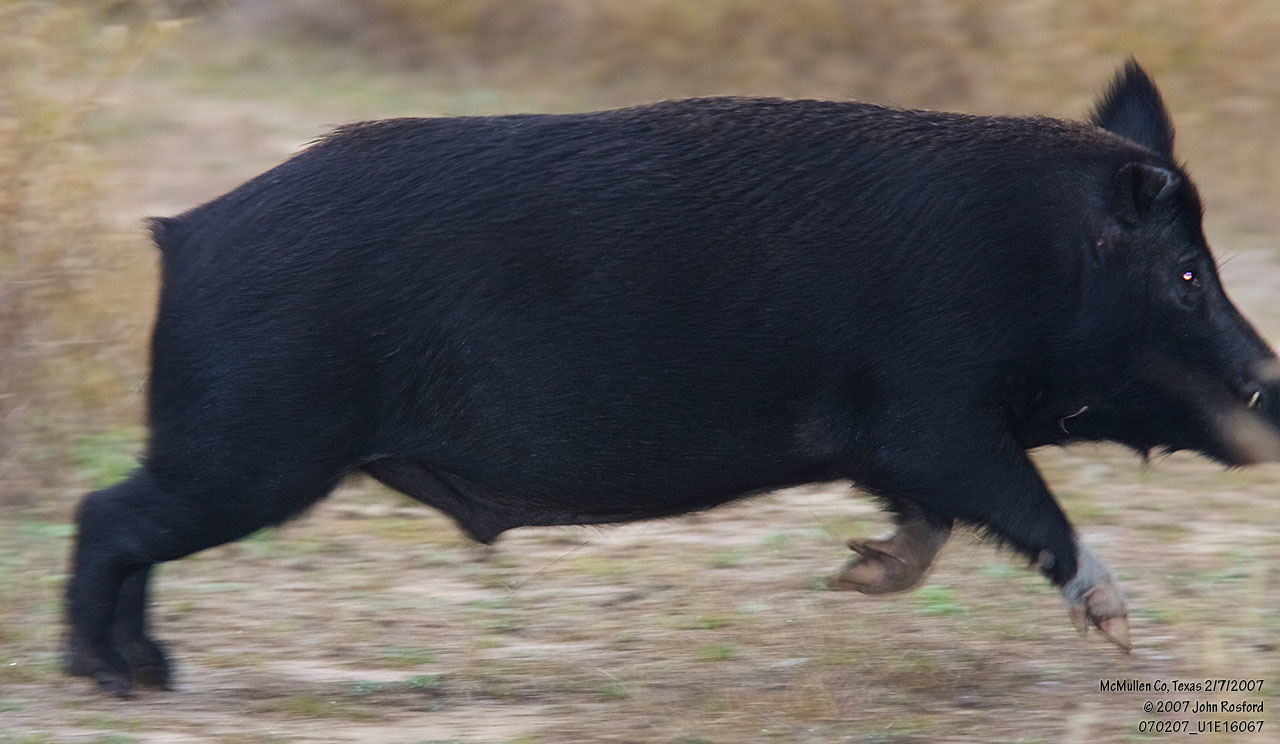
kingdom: Animalia
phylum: Chordata
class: Mammalia
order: Artiodactyla
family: Suidae
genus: Sus
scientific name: Sus scrofa
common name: Wild boar
